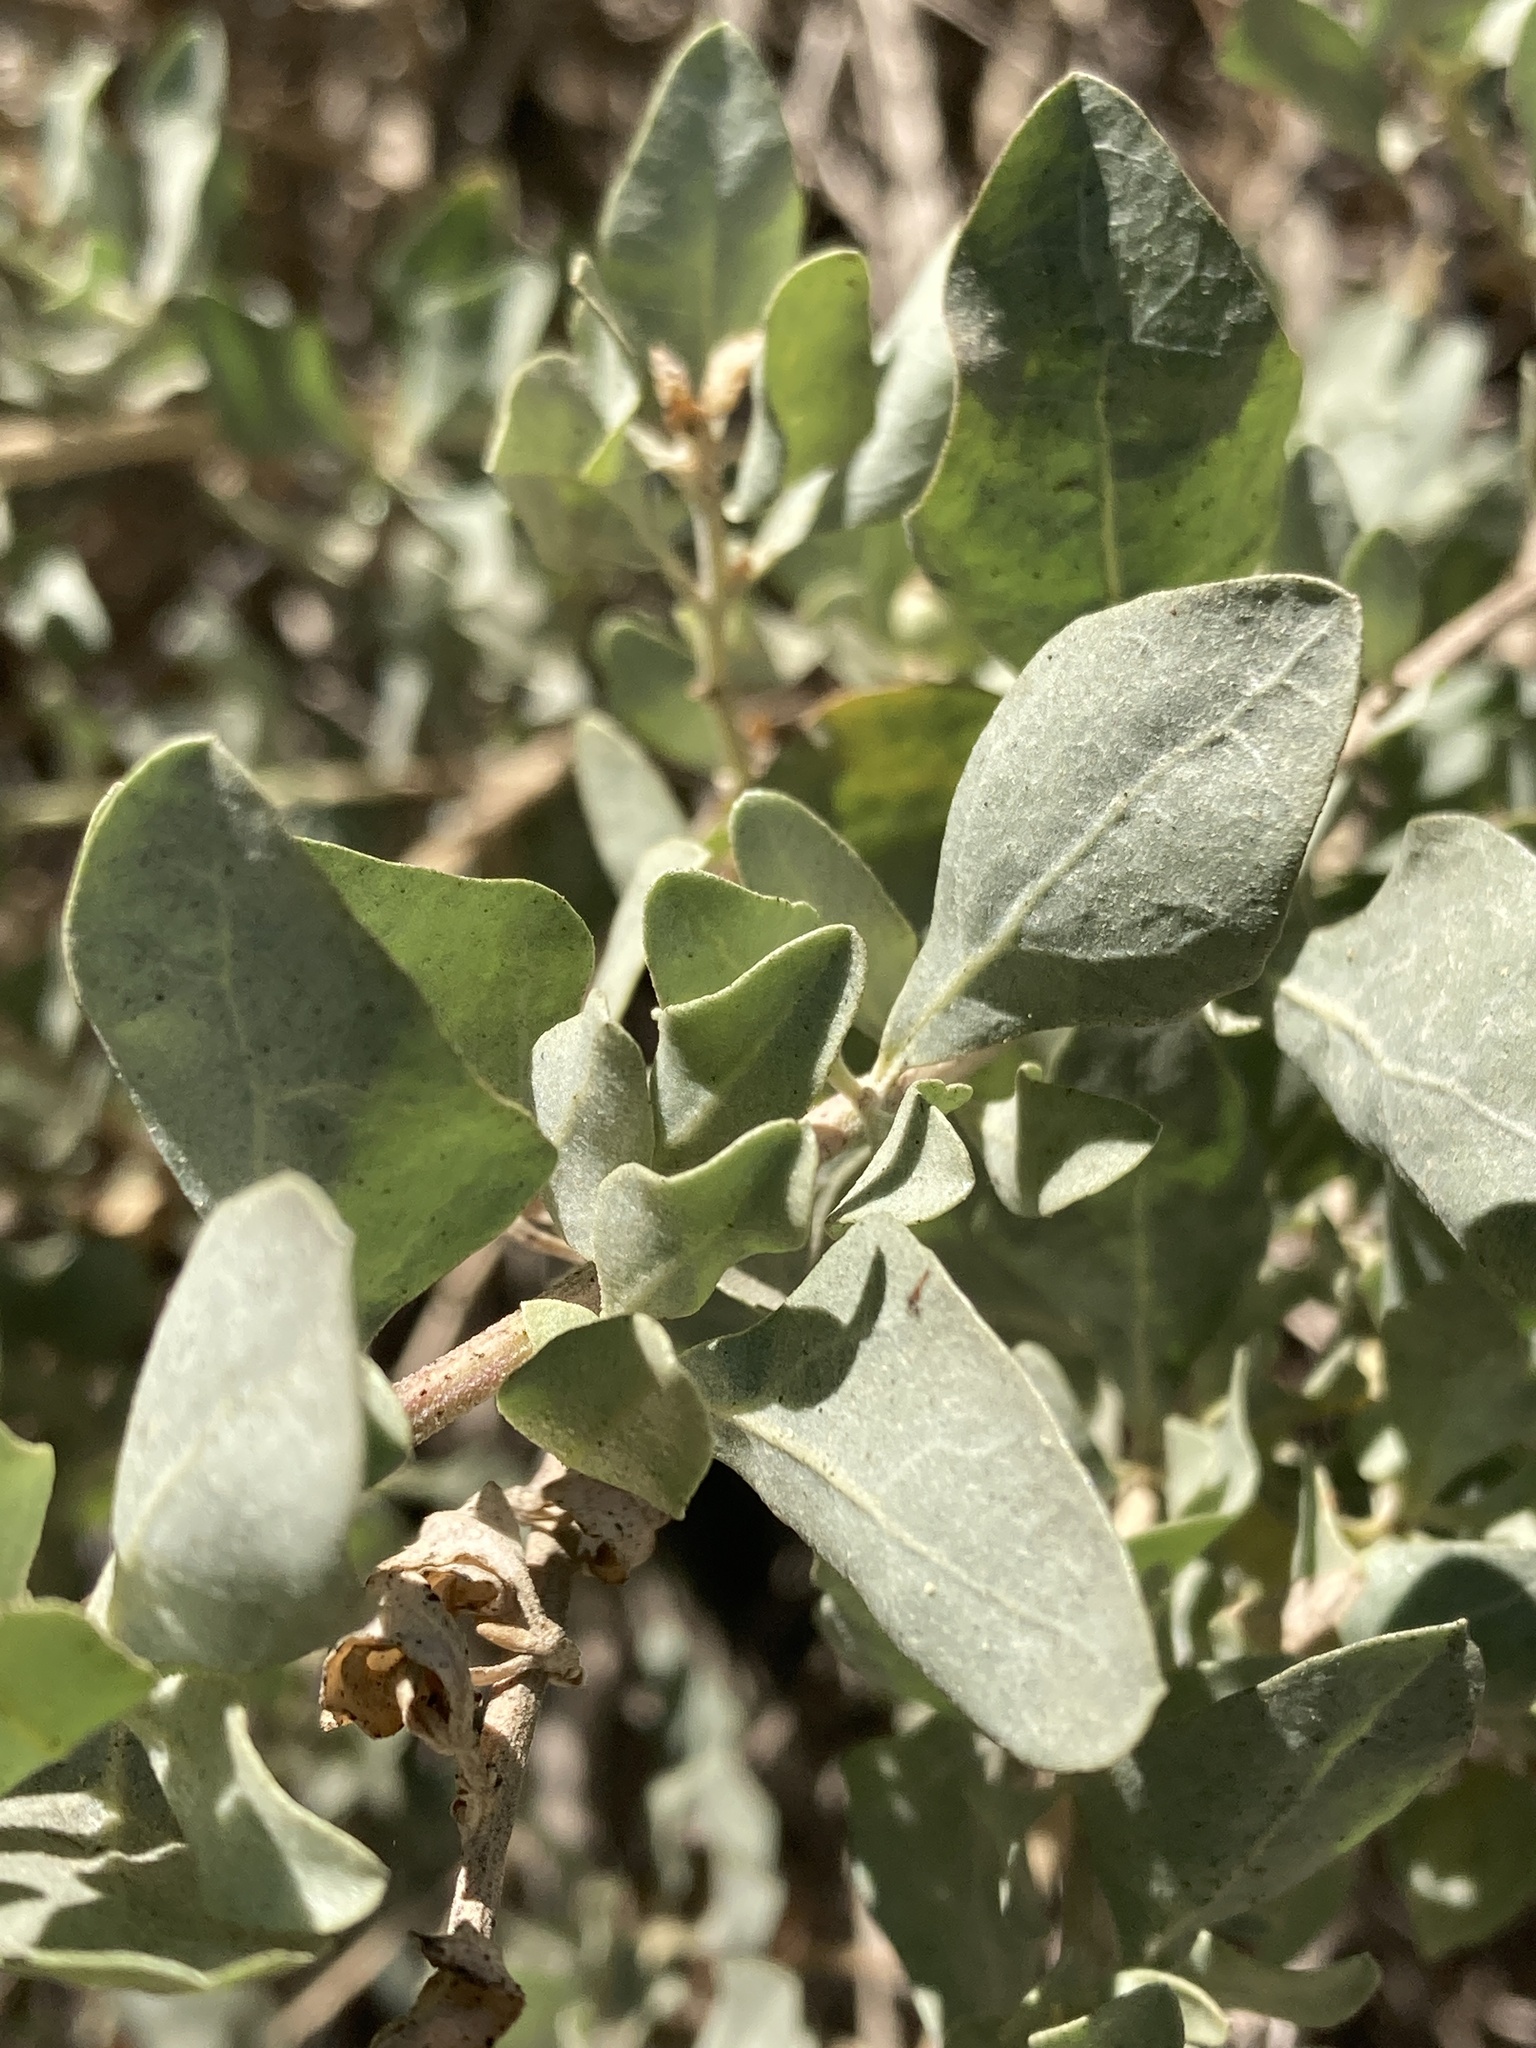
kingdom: Plantae
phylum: Tracheophyta
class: Magnoliopsida
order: Caryophyllales
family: Amaranthaceae
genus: Atriplex
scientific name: Atriplex lentiformis
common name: Big saltbush
